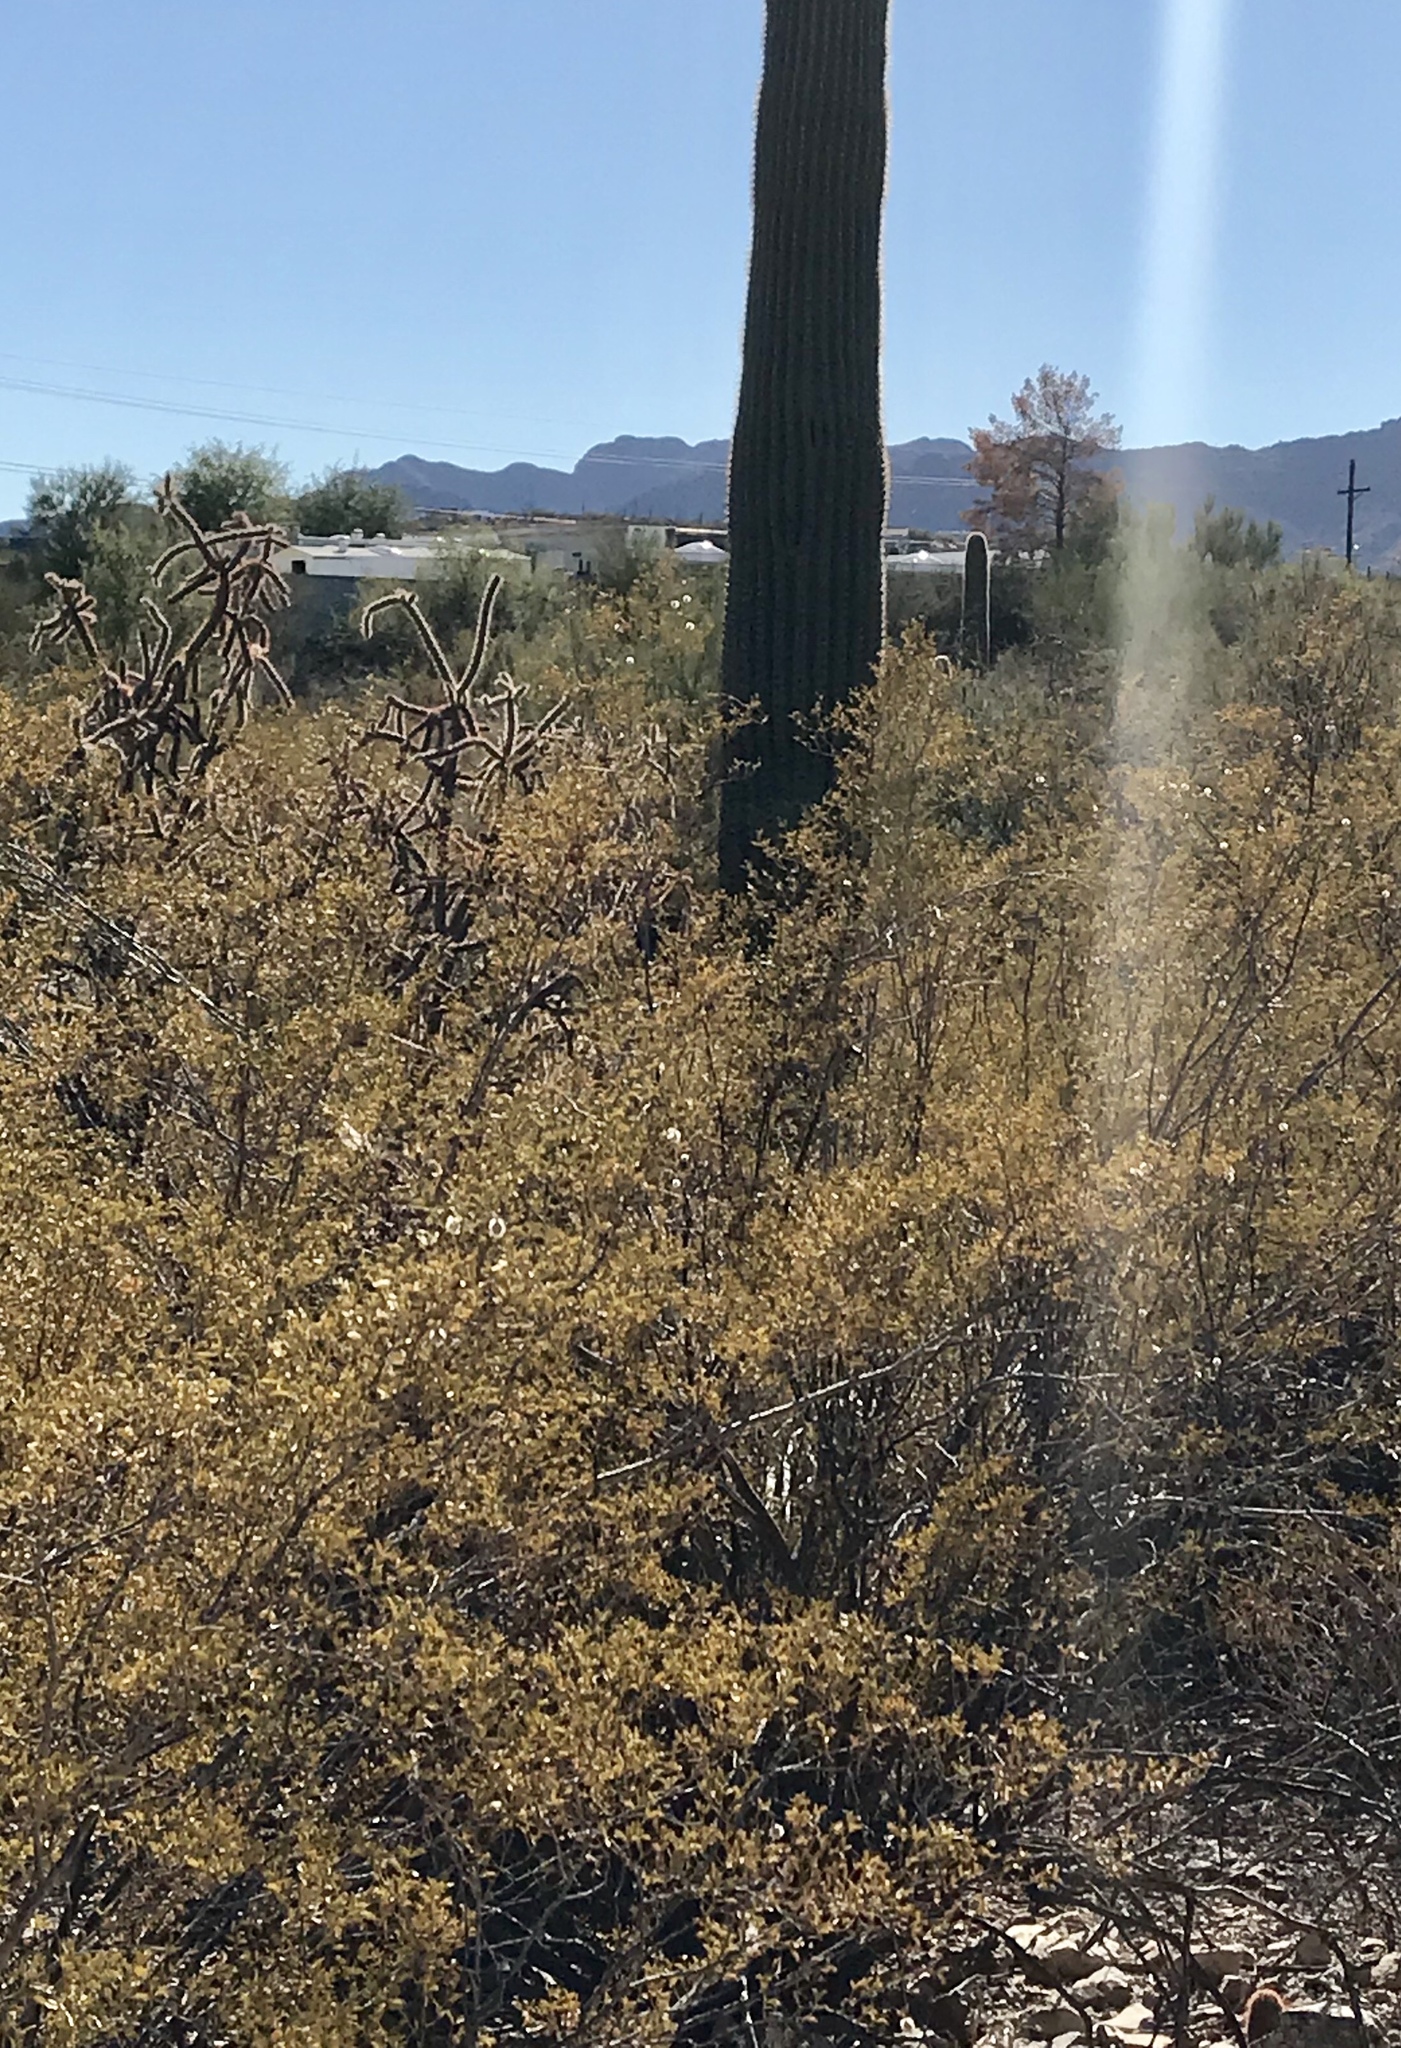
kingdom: Plantae
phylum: Tracheophyta
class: Magnoliopsida
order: Zygophyllales
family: Zygophyllaceae
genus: Larrea
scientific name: Larrea tridentata
